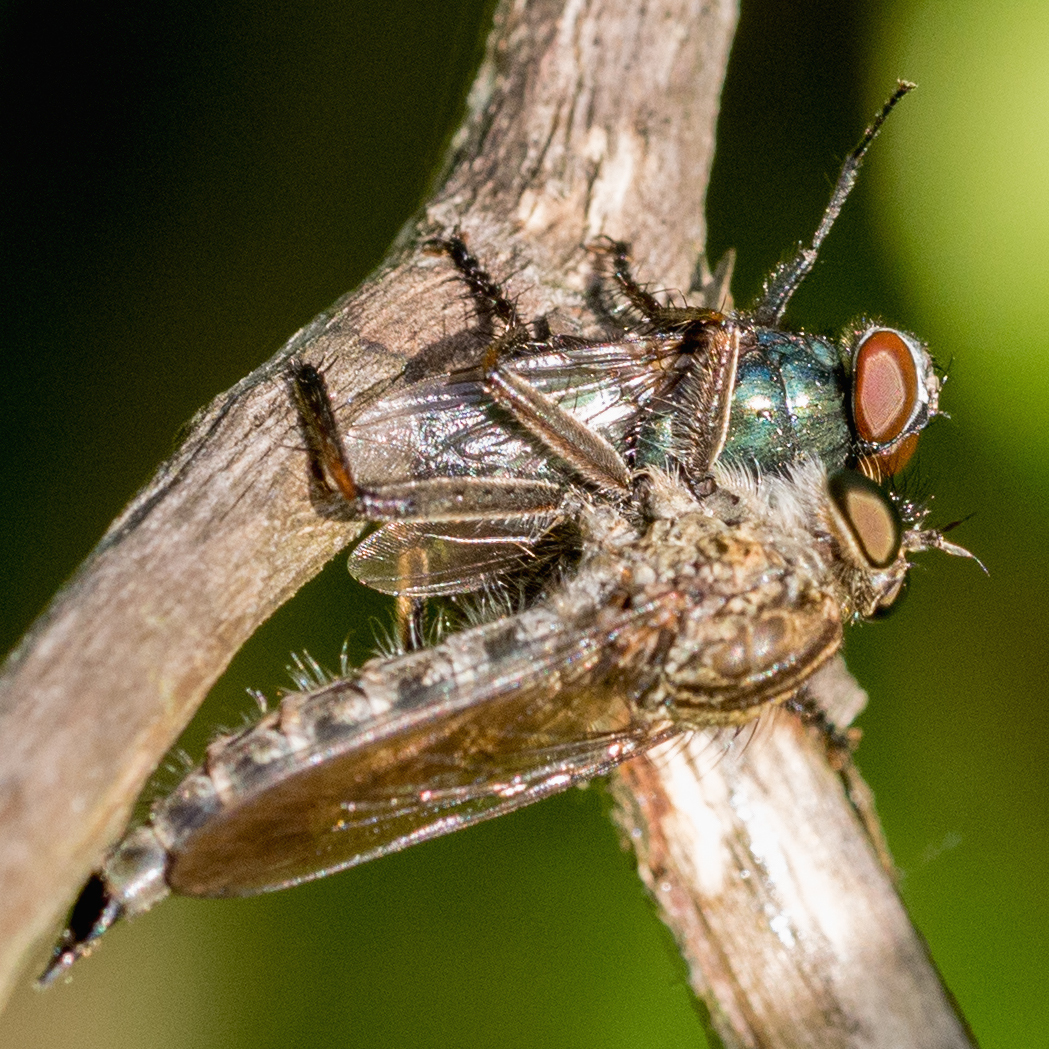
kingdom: Animalia
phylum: Arthropoda
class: Insecta
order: Diptera
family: Asilidae
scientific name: Asilidae
